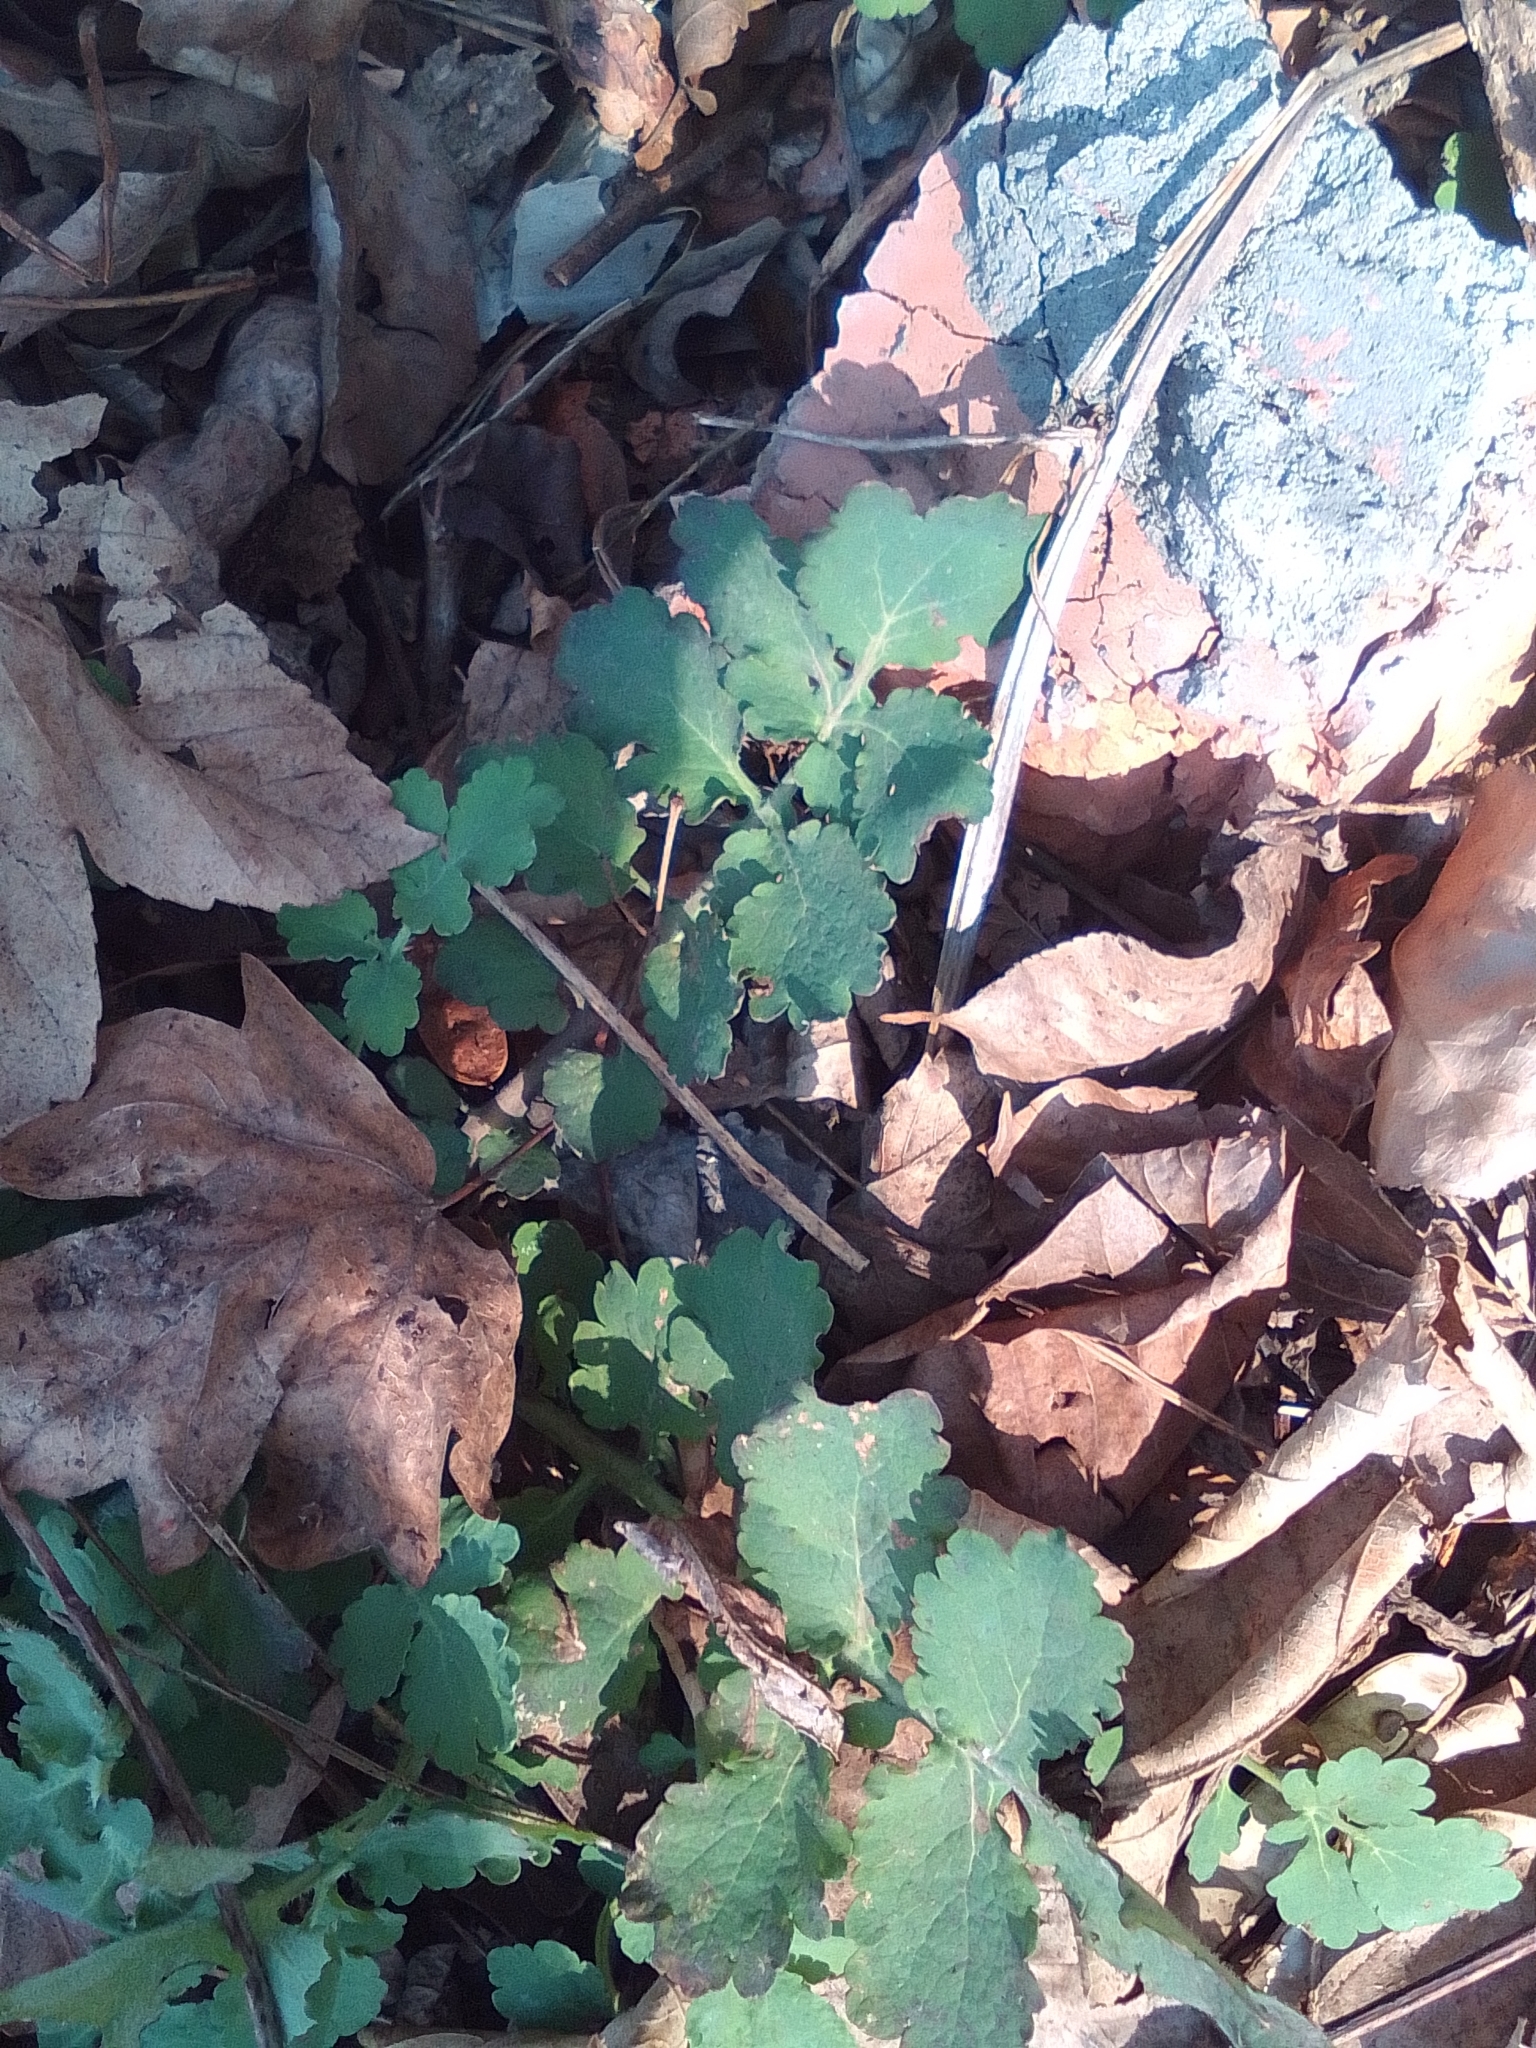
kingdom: Plantae
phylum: Tracheophyta
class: Magnoliopsida
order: Ranunculales
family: Papaveraceae
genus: Chelidonium
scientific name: Chelidonium majus
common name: Greater celandine
